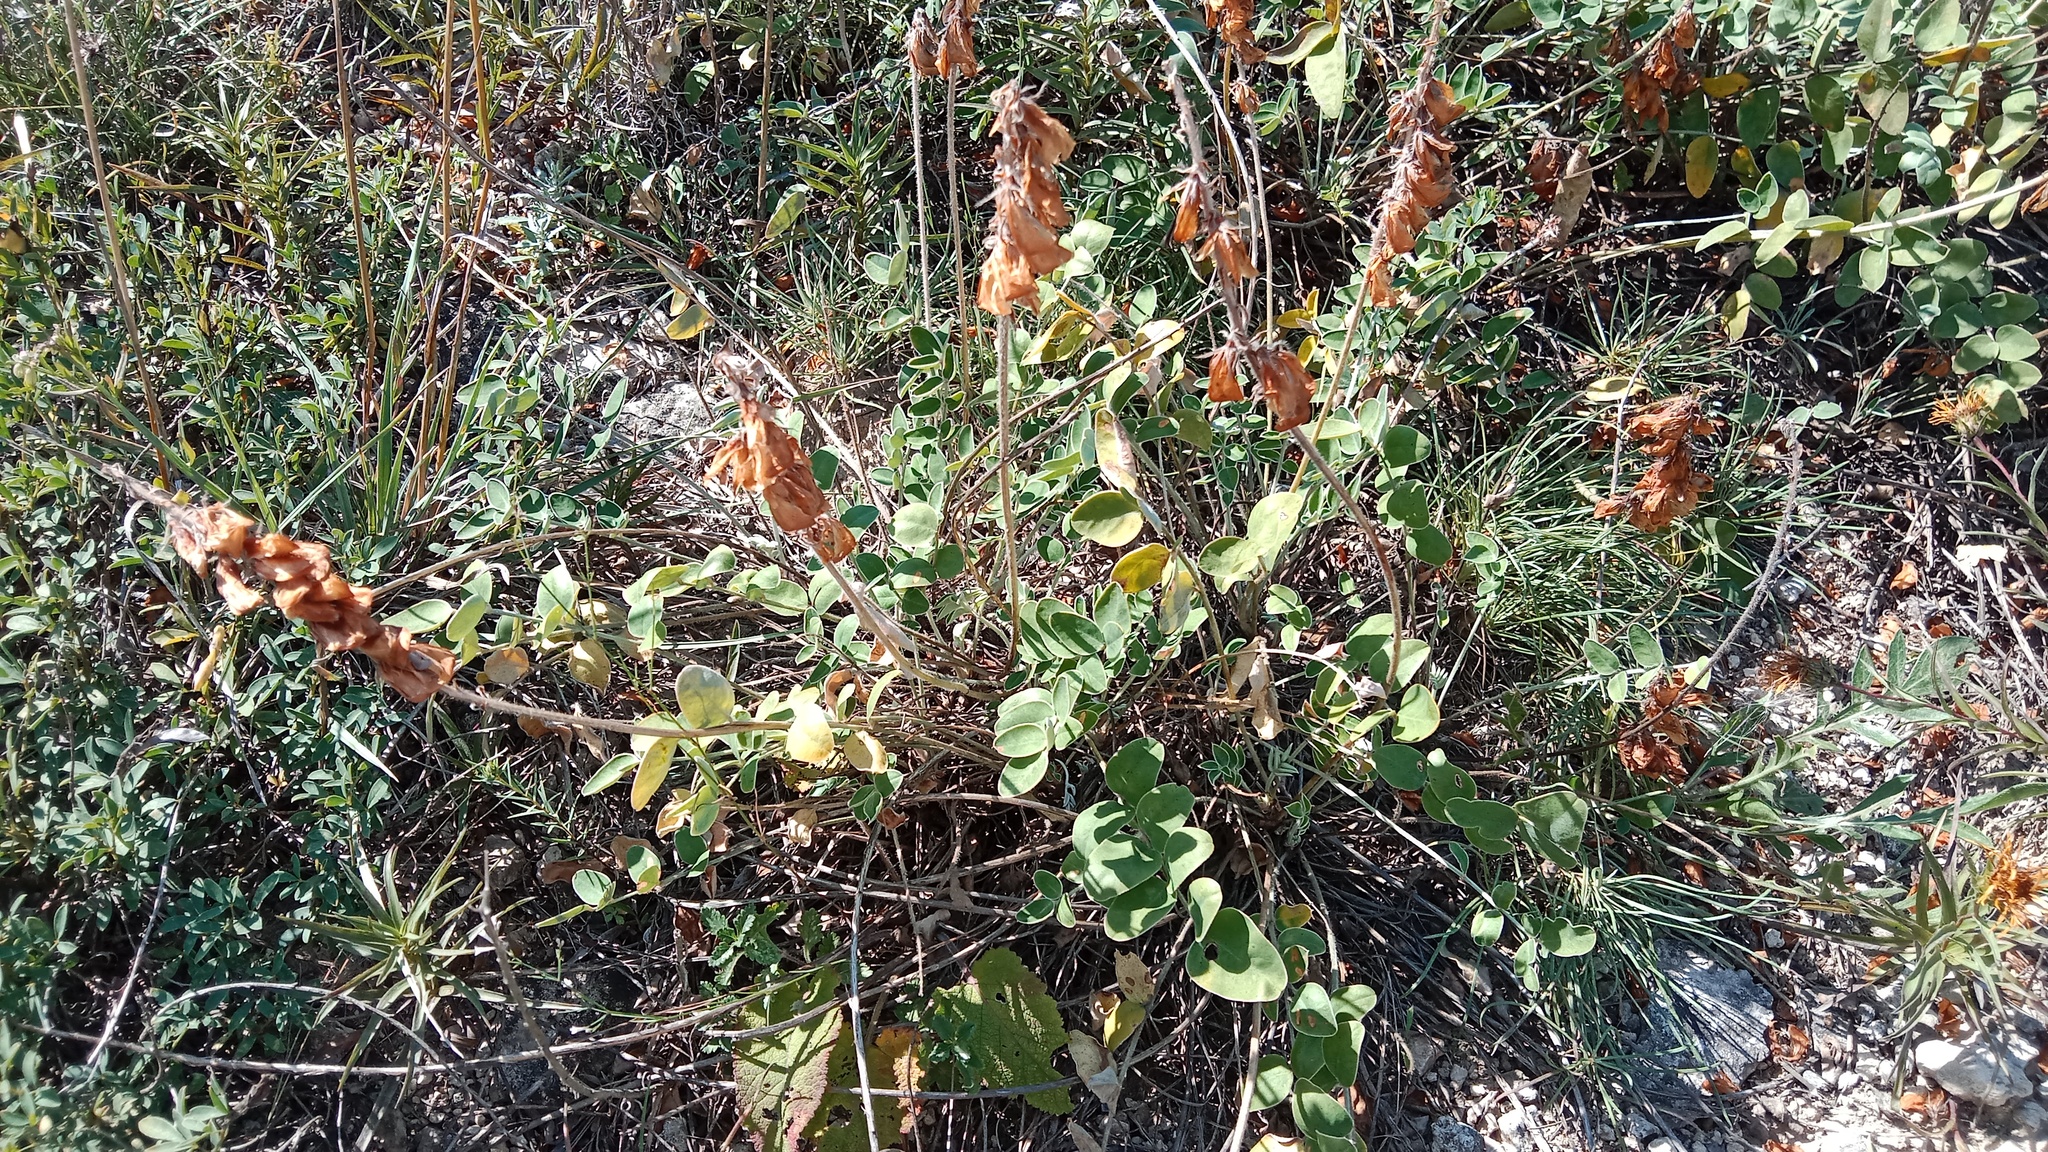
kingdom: Plantae
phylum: Tracheophyta
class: Magnoliopsida
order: Fabales
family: Fabaceae
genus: Hedysarum
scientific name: Hedysarum grandiflorum
